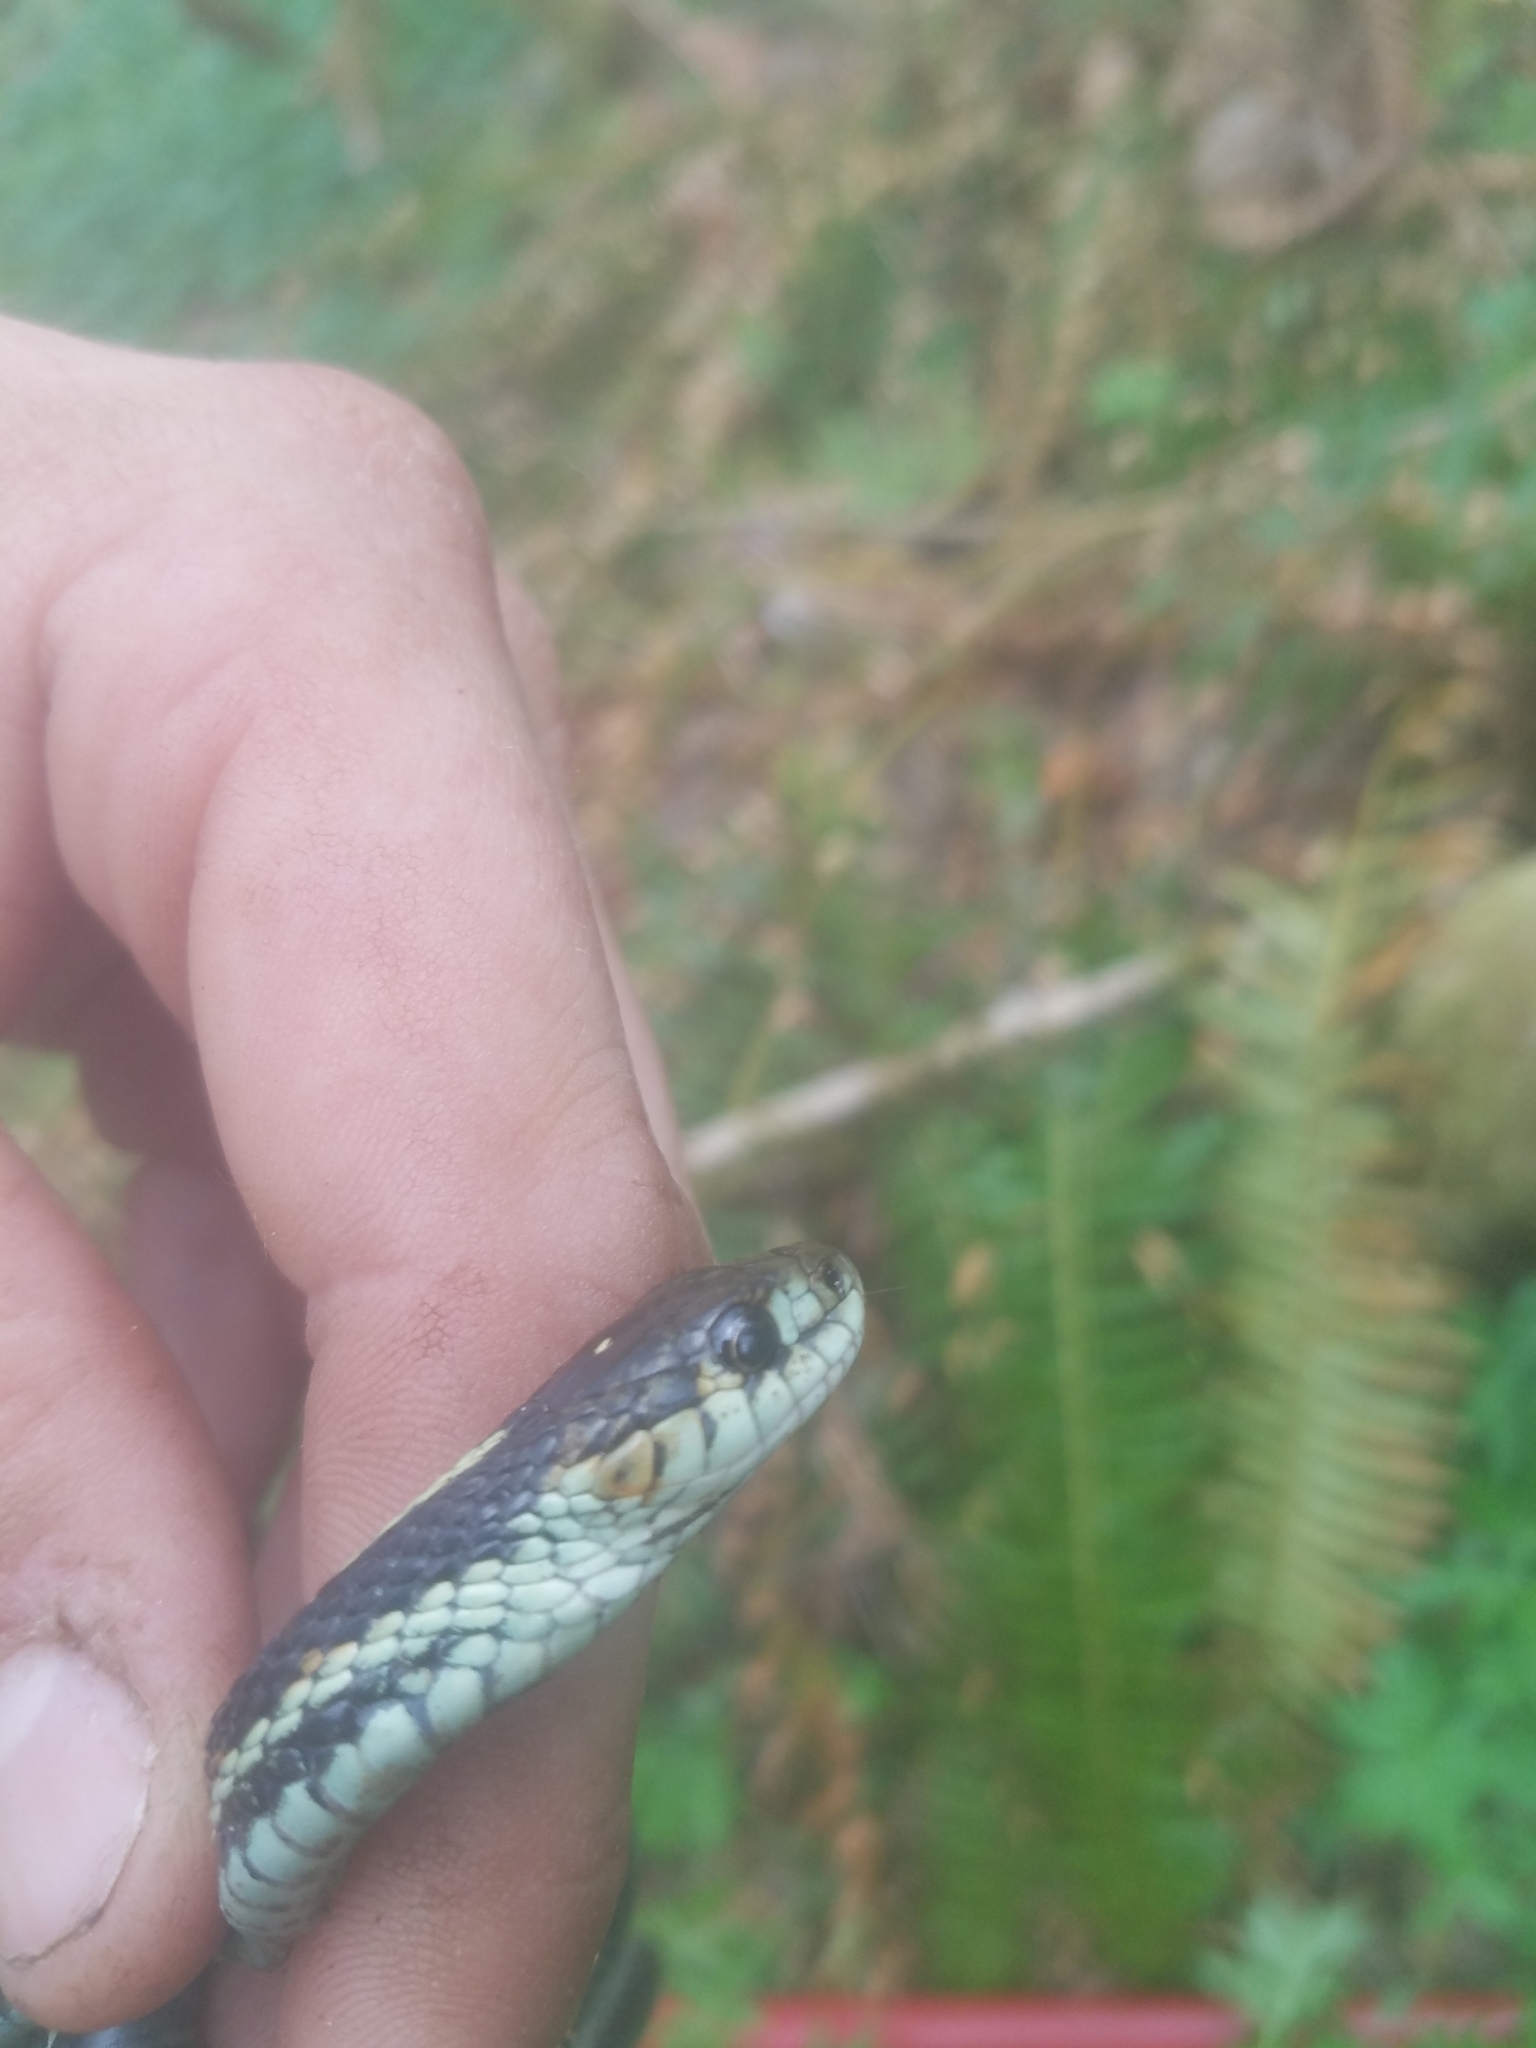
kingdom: Animalia
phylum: Chordata
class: Squamata
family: Colubridae
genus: Thamnophis
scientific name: Thamnophis sirtalis
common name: Common garter snake
